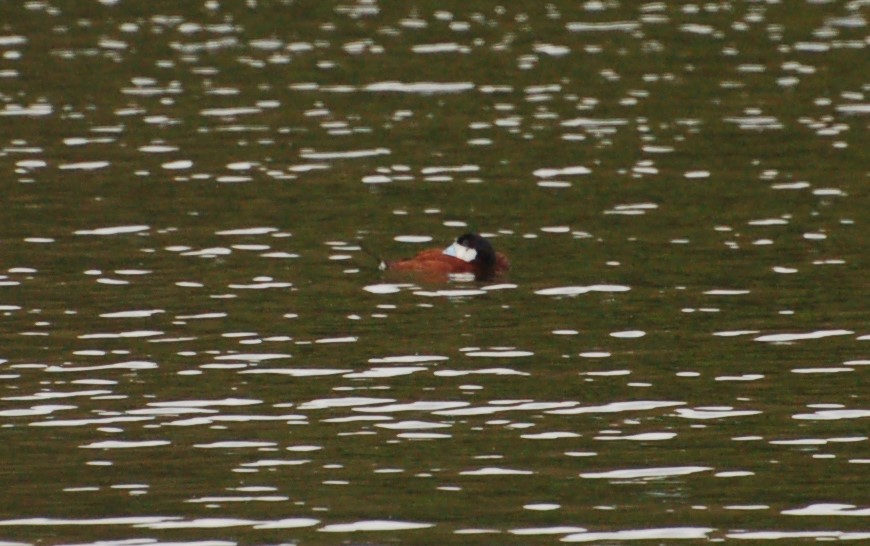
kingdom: Animalia
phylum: Chordata
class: Aves
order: Anseriformes
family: Anatidae
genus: Oxyura
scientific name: Oxyura jamaicensis
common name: Ruddy duck
